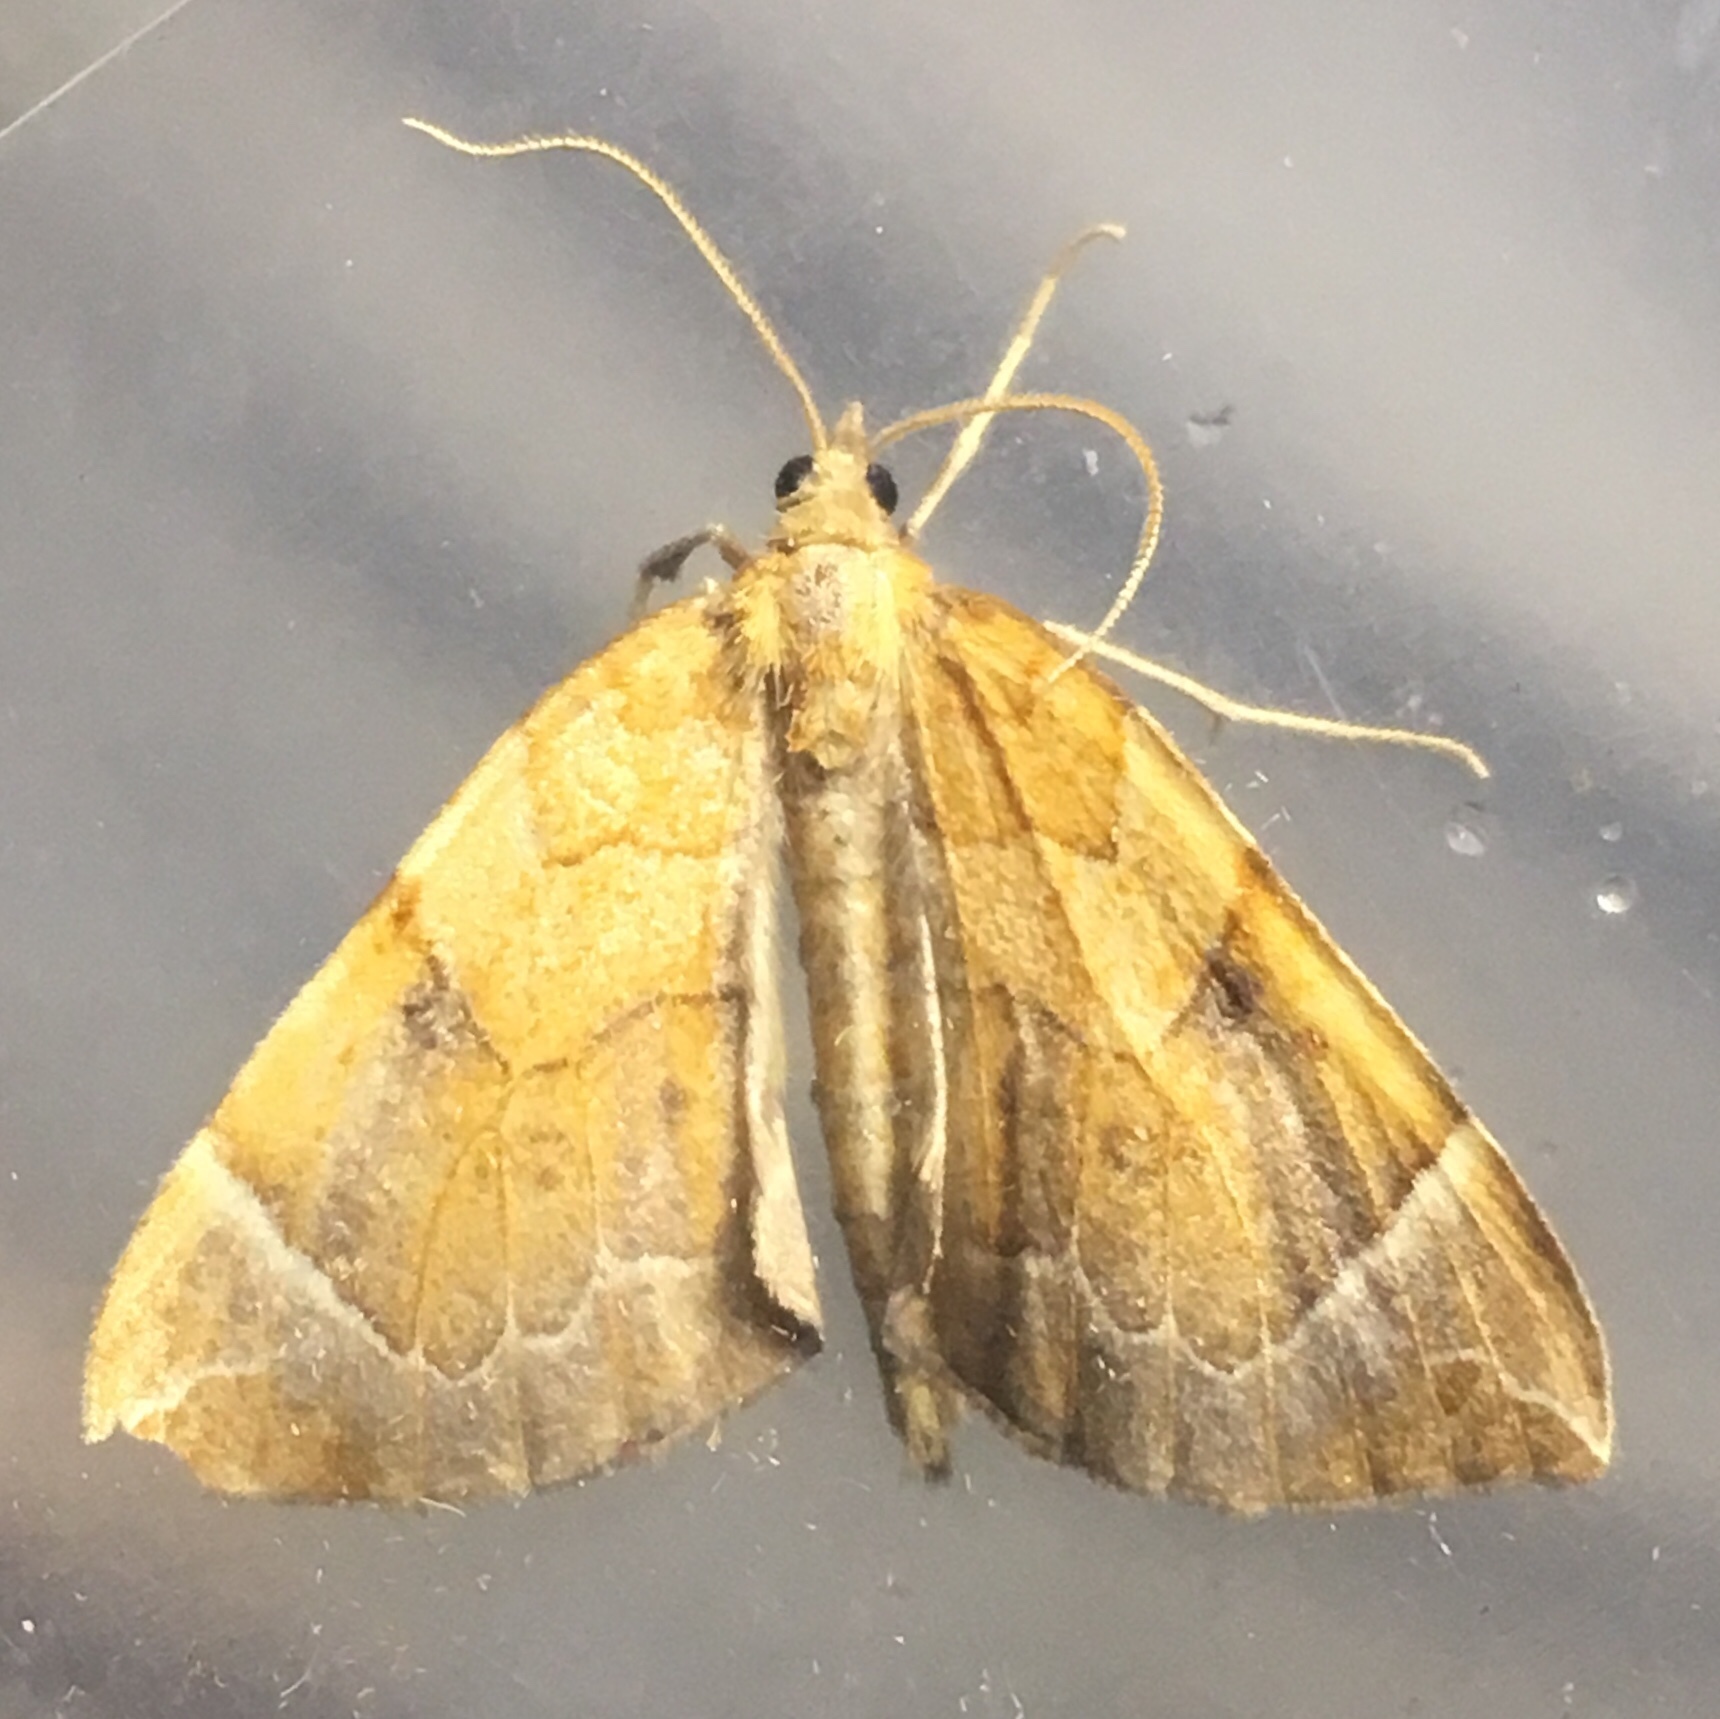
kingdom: Animalia
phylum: Arthropoda
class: Insecta
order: Lepidoptera
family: Geometridae
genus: Eulithis
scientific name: Eulithis testata
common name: Chevron
